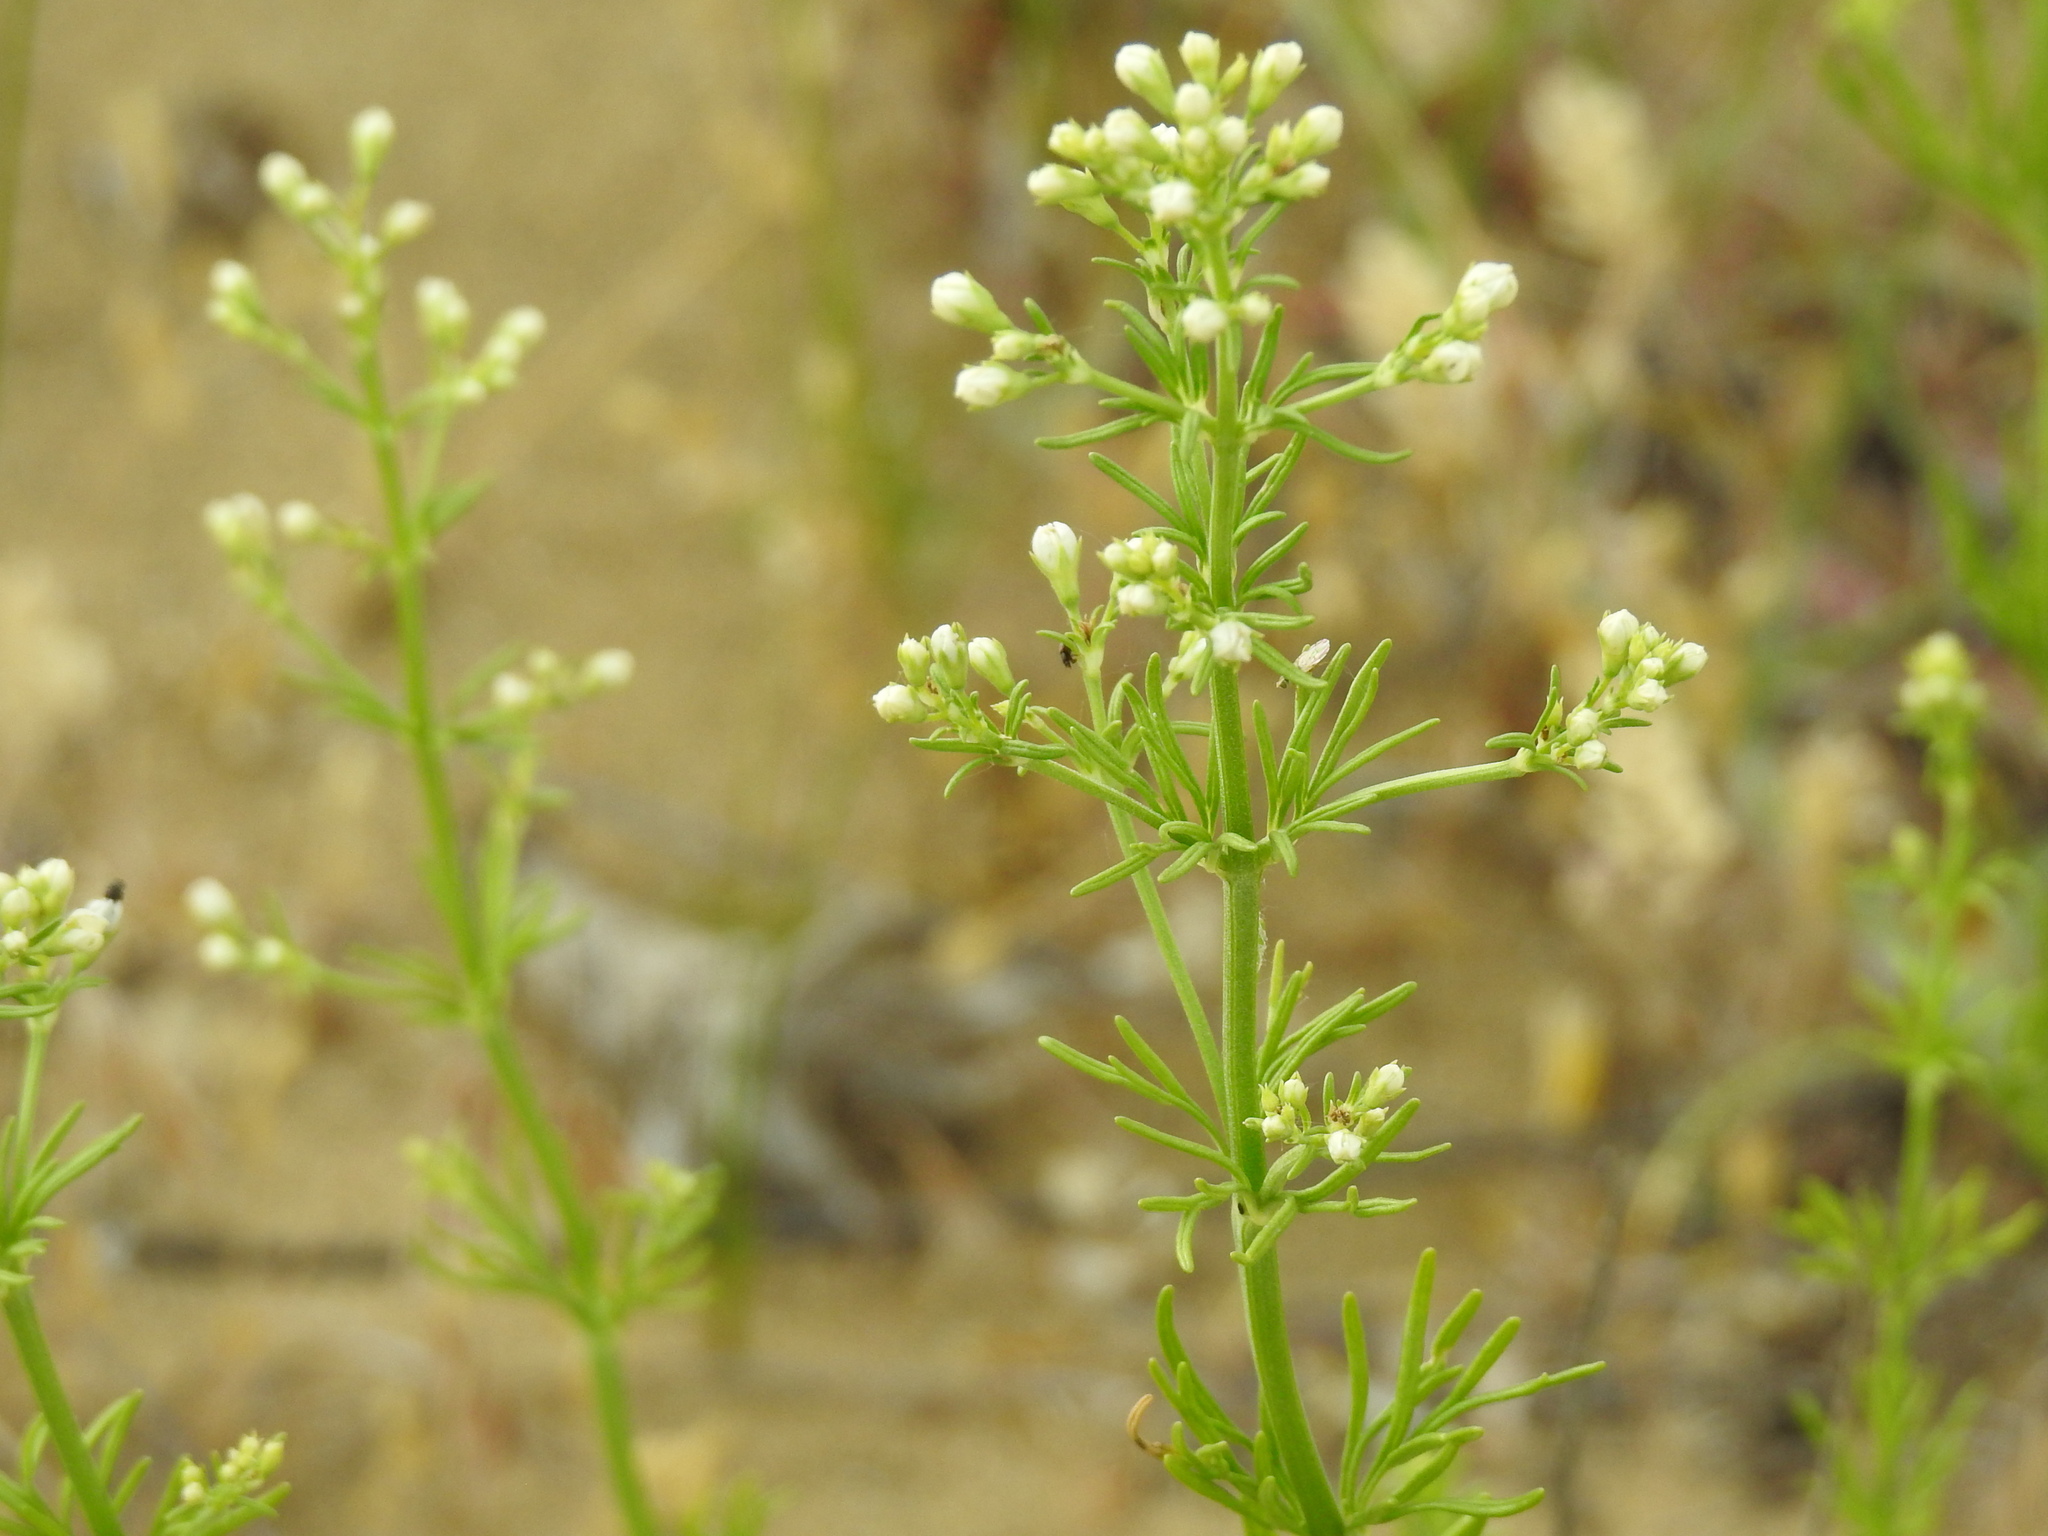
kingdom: Plantae
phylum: Tracheophyta
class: Magnoliopsida
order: Lamiales
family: Lamiaceae
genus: Teucrium
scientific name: Teucrium orientale
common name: Oriental germander
